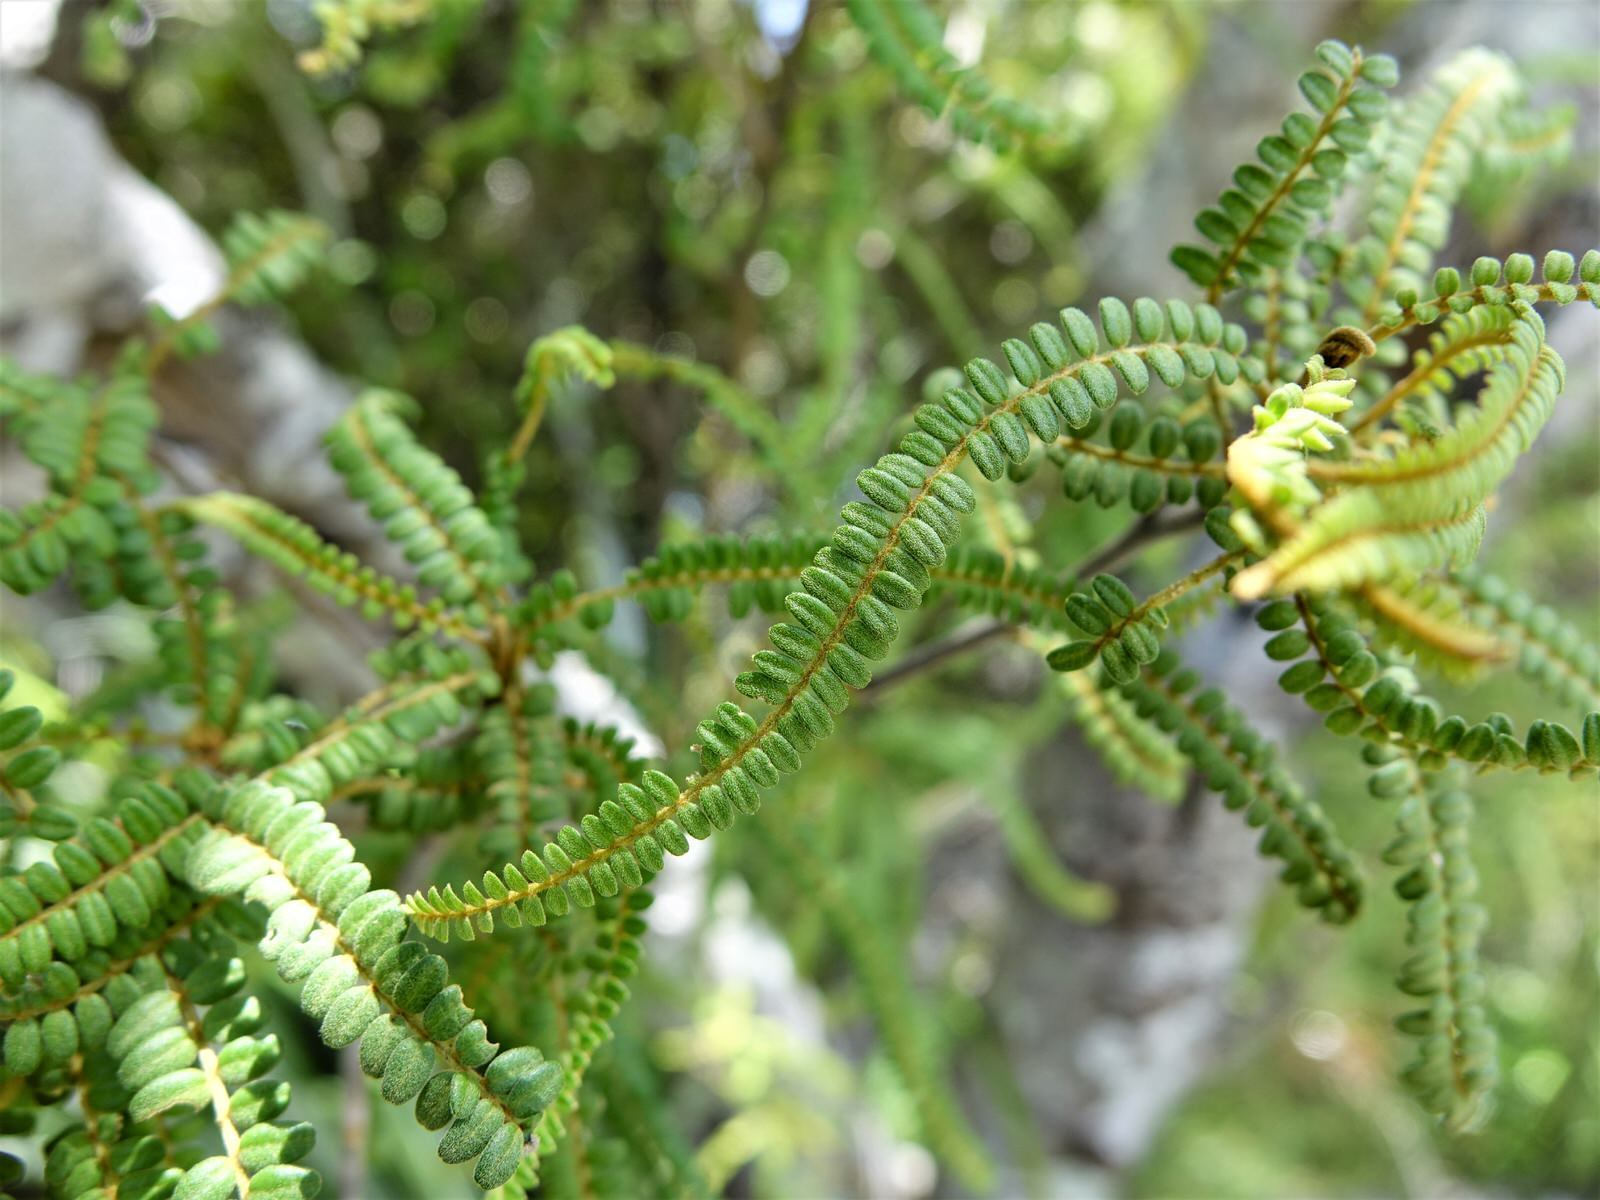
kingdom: Plantae
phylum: Tracheophyta
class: Magnoliopsida
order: Fabales
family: Fabaceae
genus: Sophora
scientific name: Sophora fulvida
